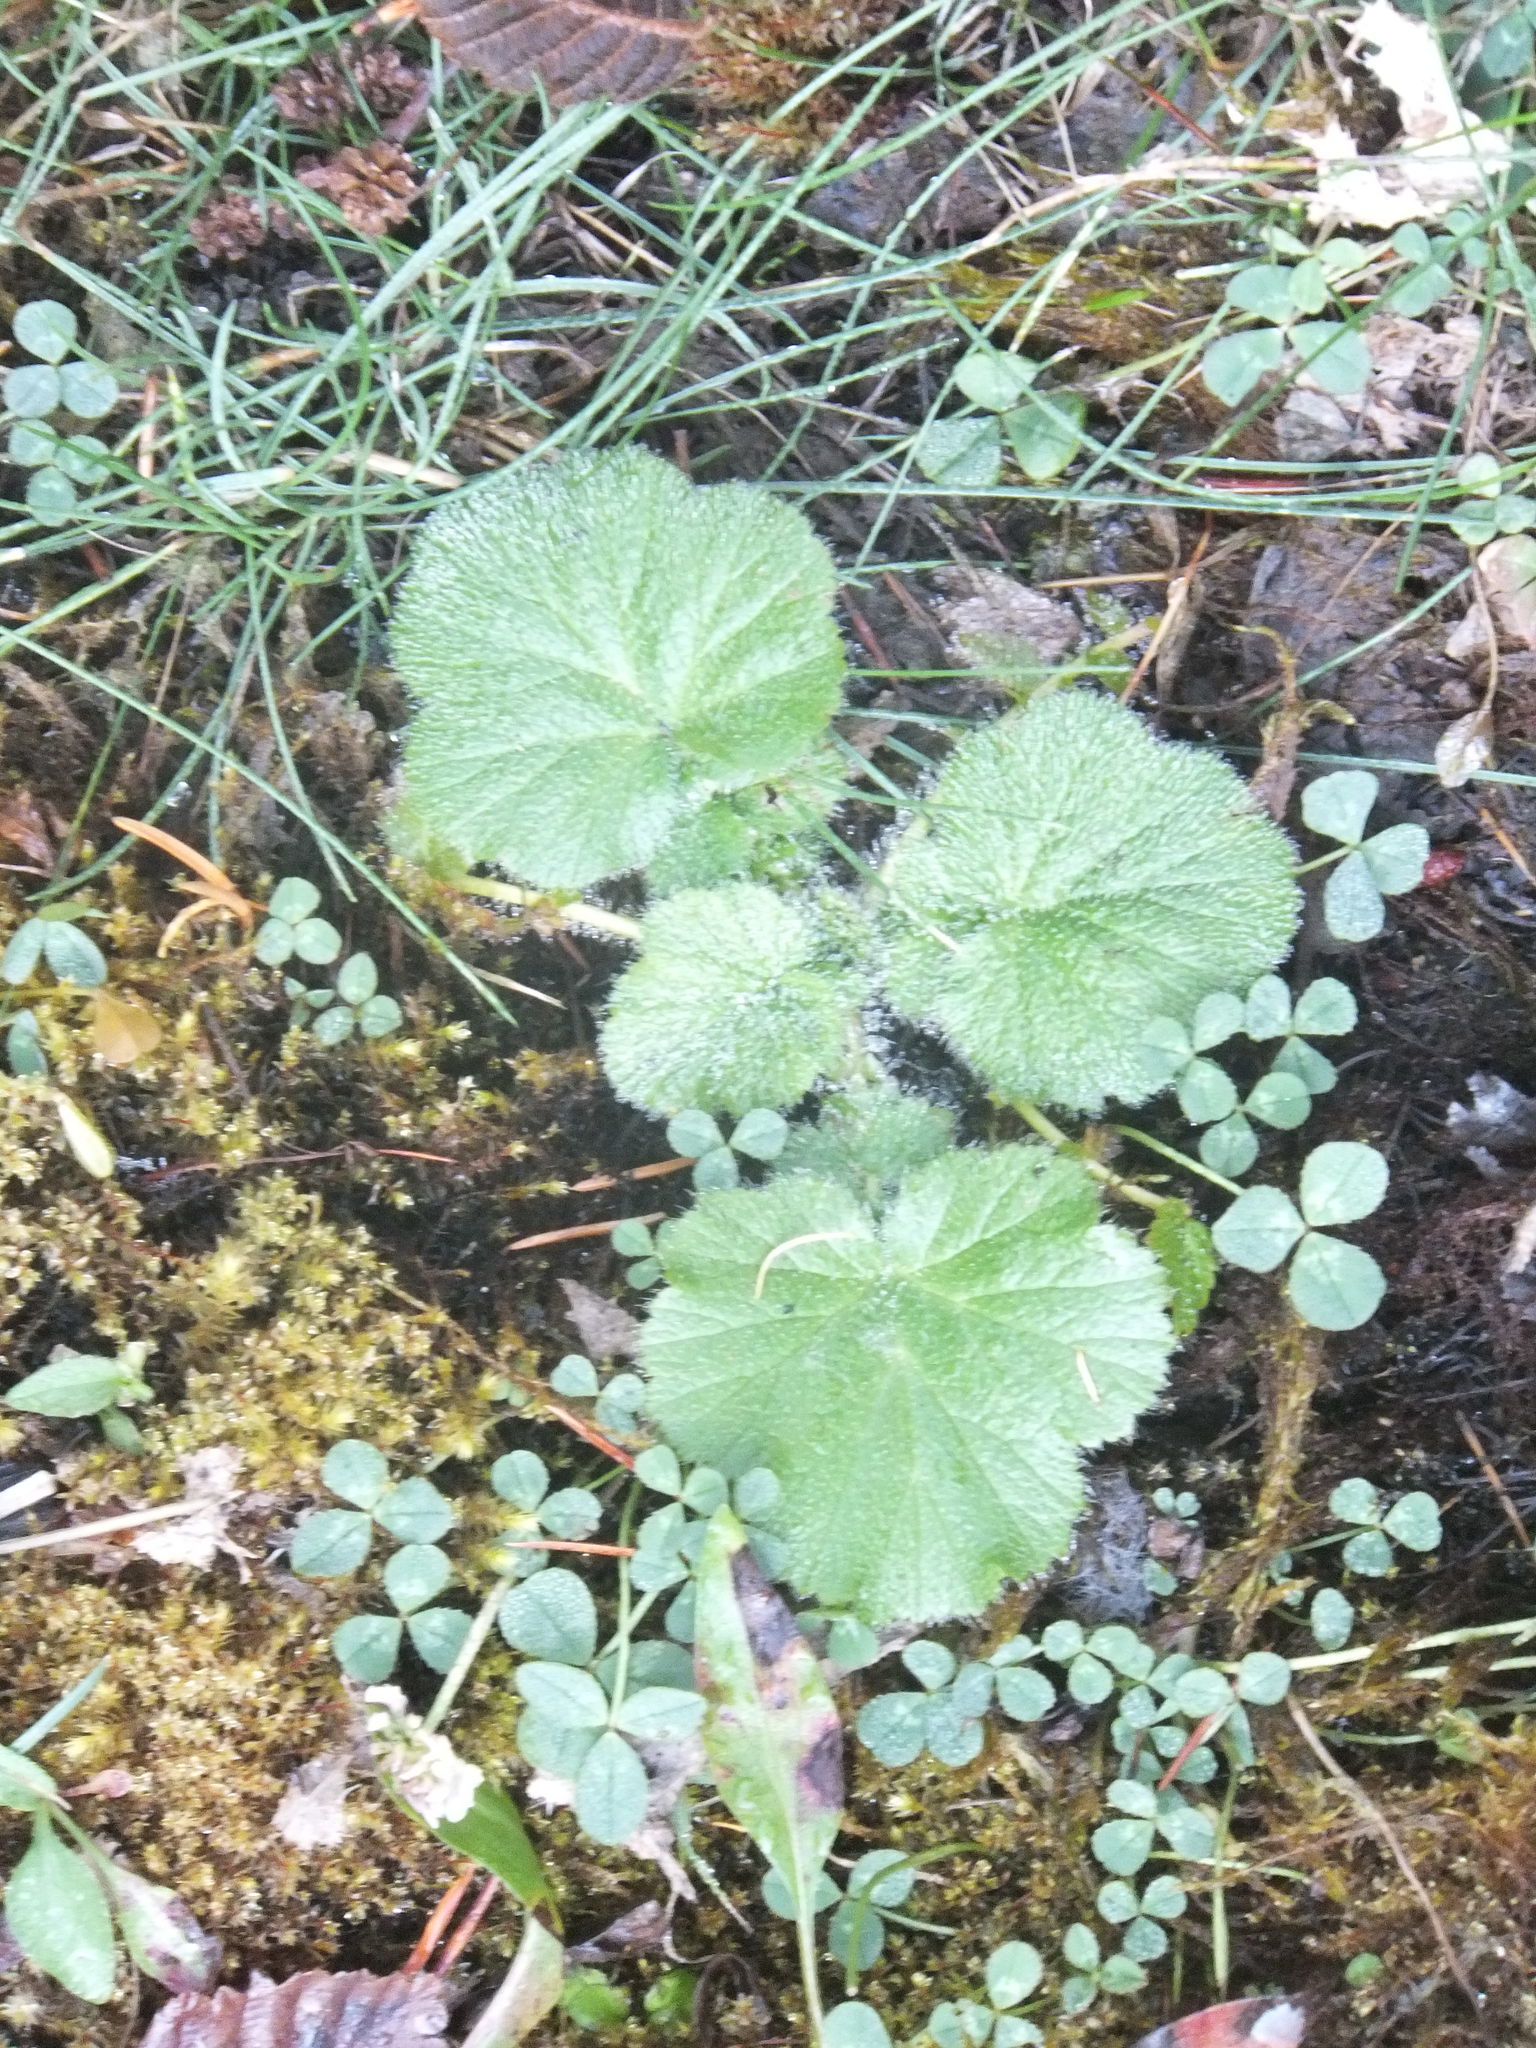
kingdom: Plantae
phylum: Tracheophyta
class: Magnoliopsida
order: Rosales
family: Rosaceae
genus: Geum
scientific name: Geum macrophyllum
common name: Large-leaved avens
